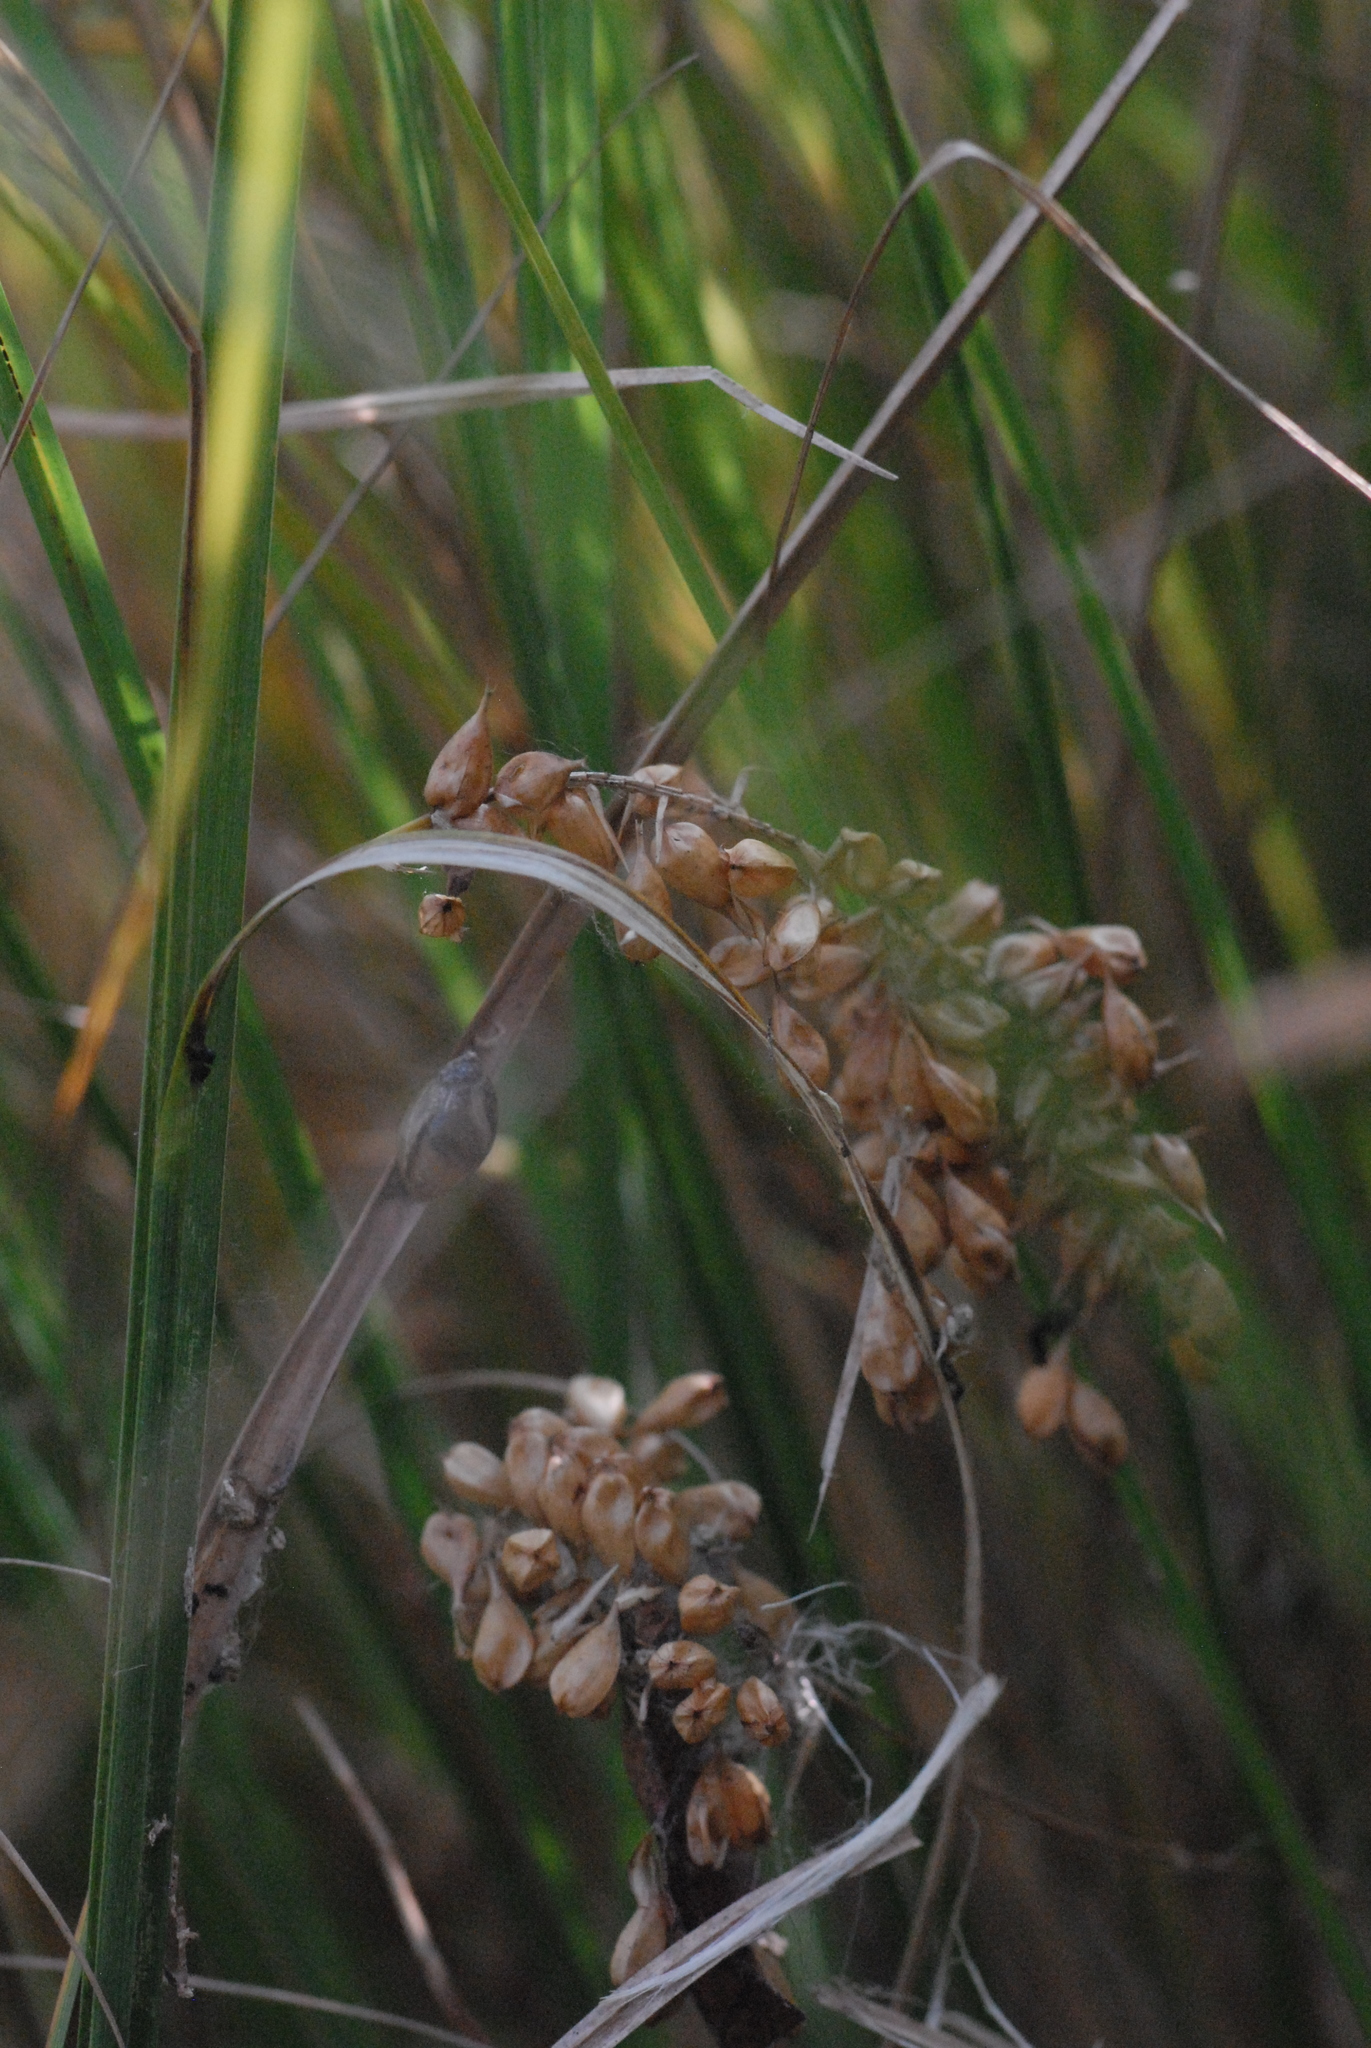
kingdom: Plantae
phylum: Tracheophyta
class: Liliopsida
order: Poales
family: Cyperaceae
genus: Carex
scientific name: Carex rostrata
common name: Bottle sedge
